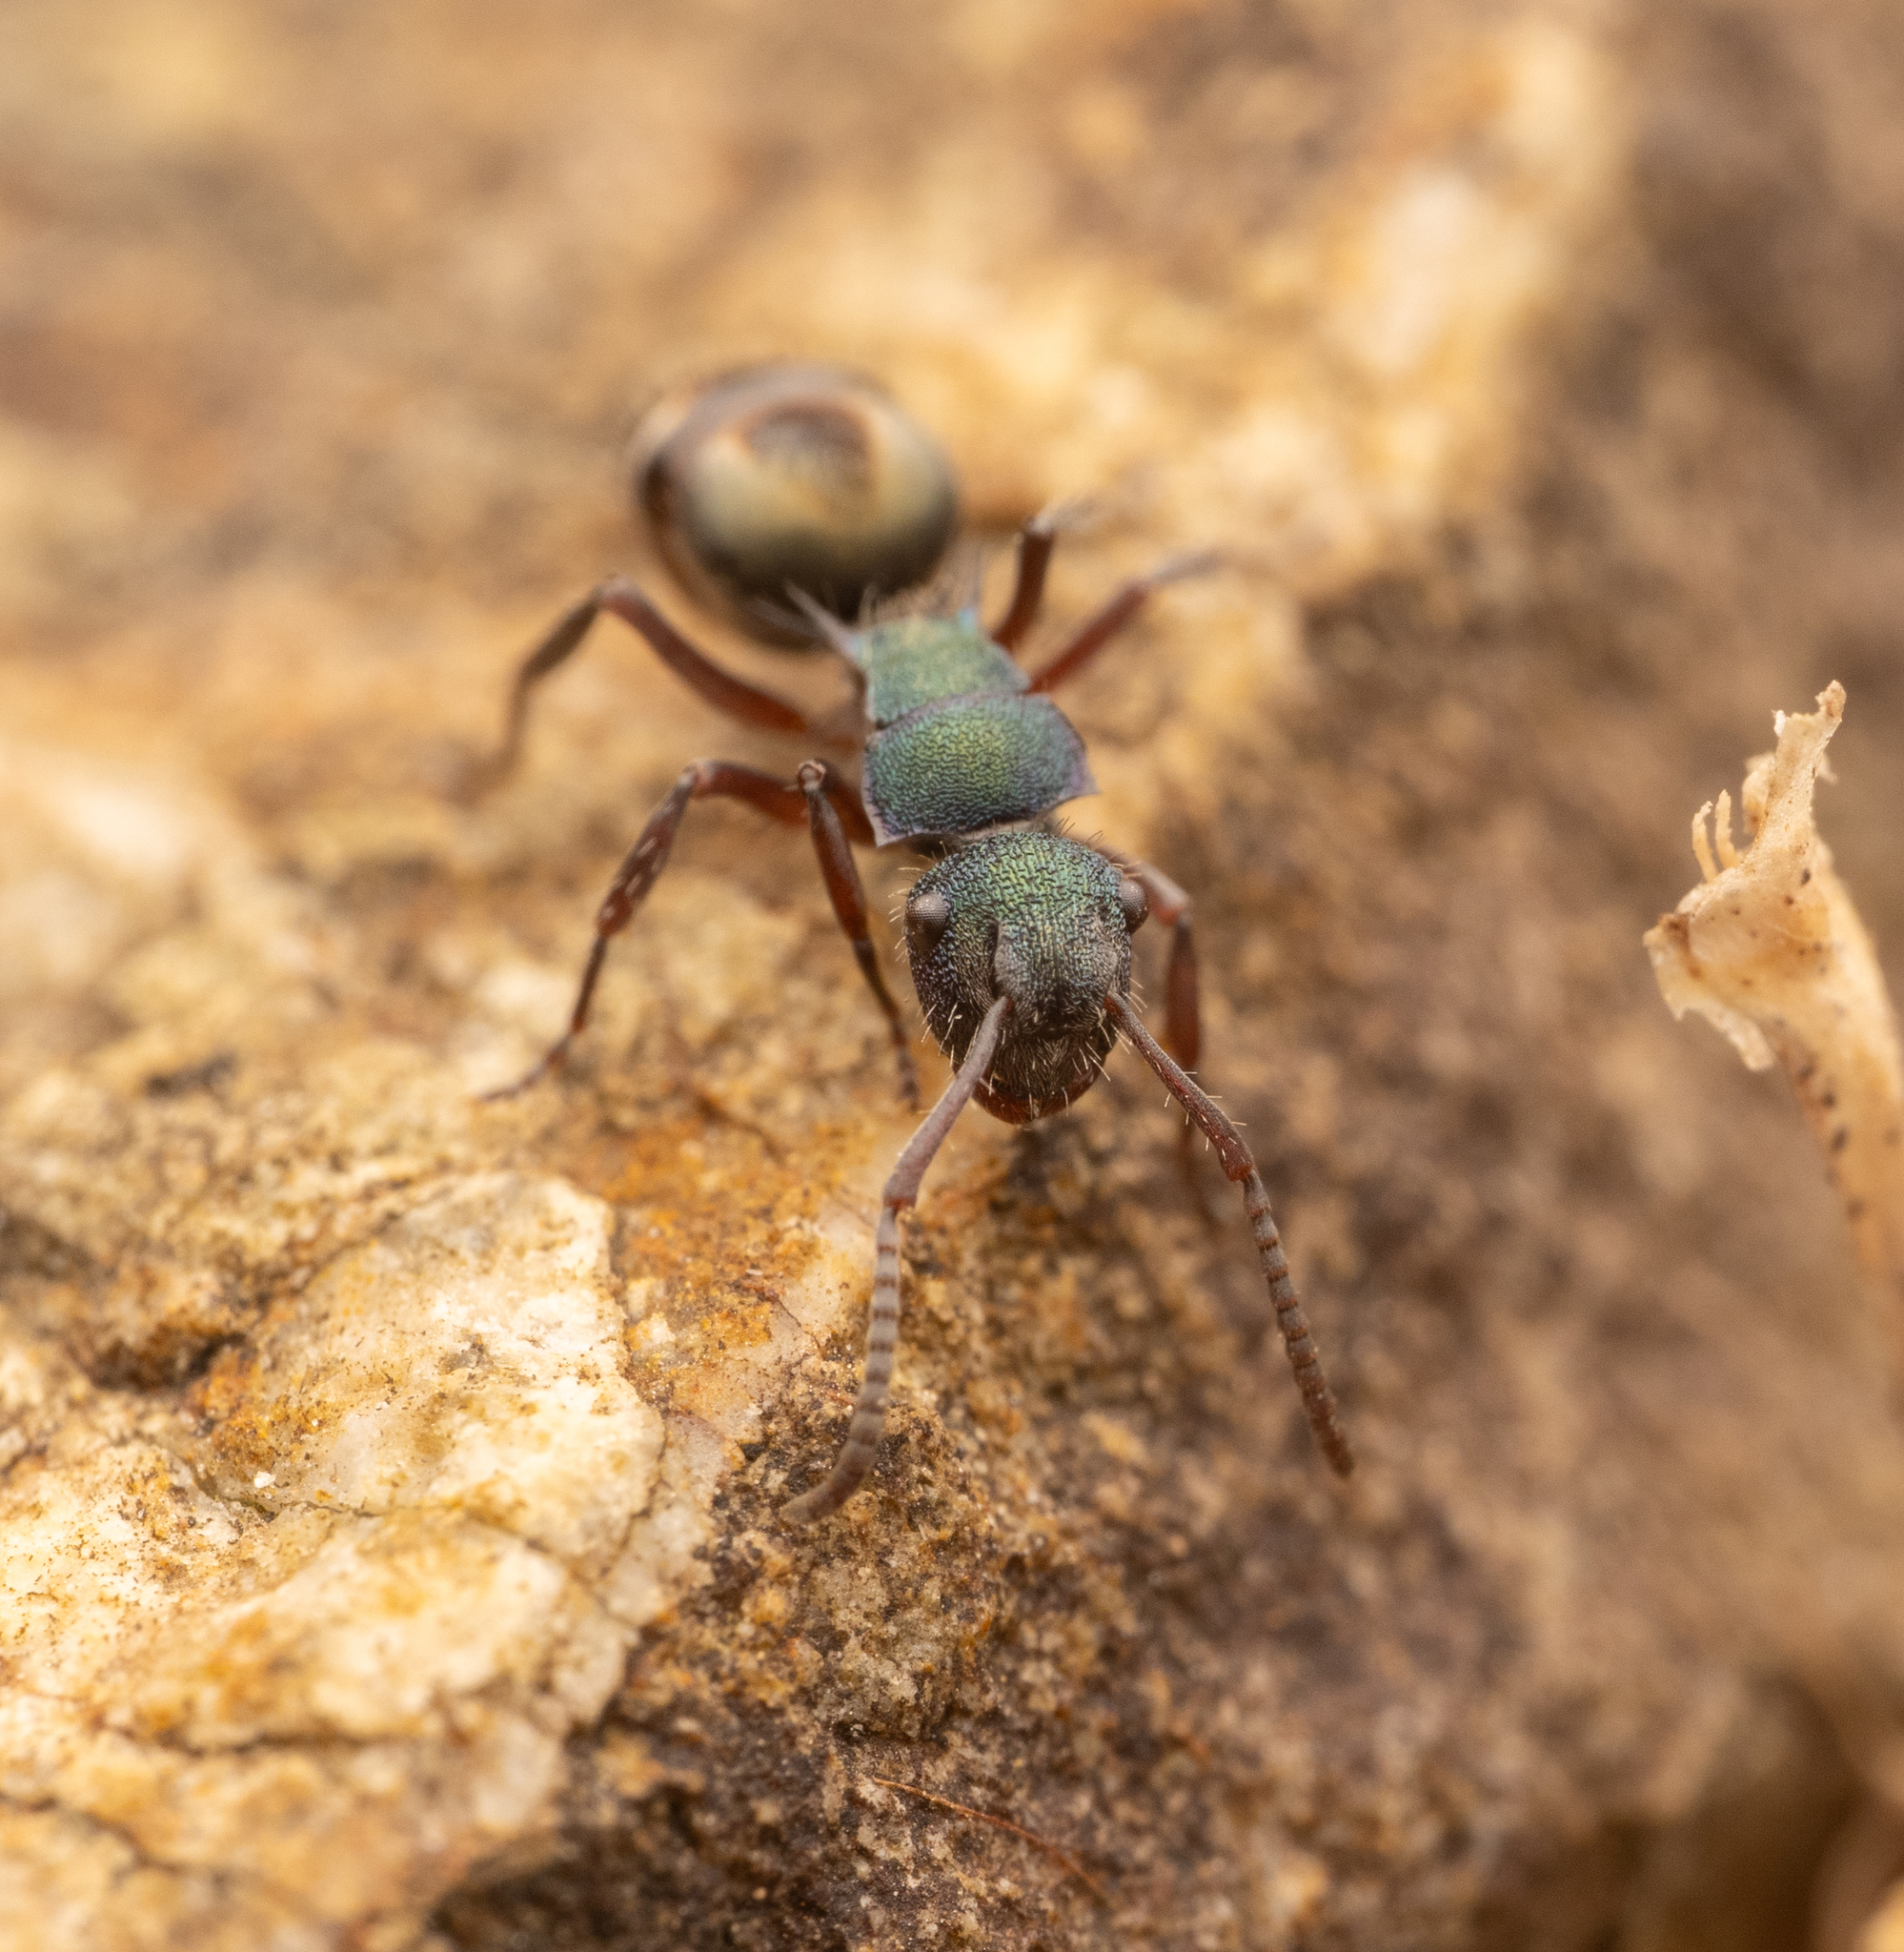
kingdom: Animalia
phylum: Arthropoda
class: Insecta
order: Hymenoptera
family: Formicidae
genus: Polyrhachis
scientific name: Polyrhachis hookeri
